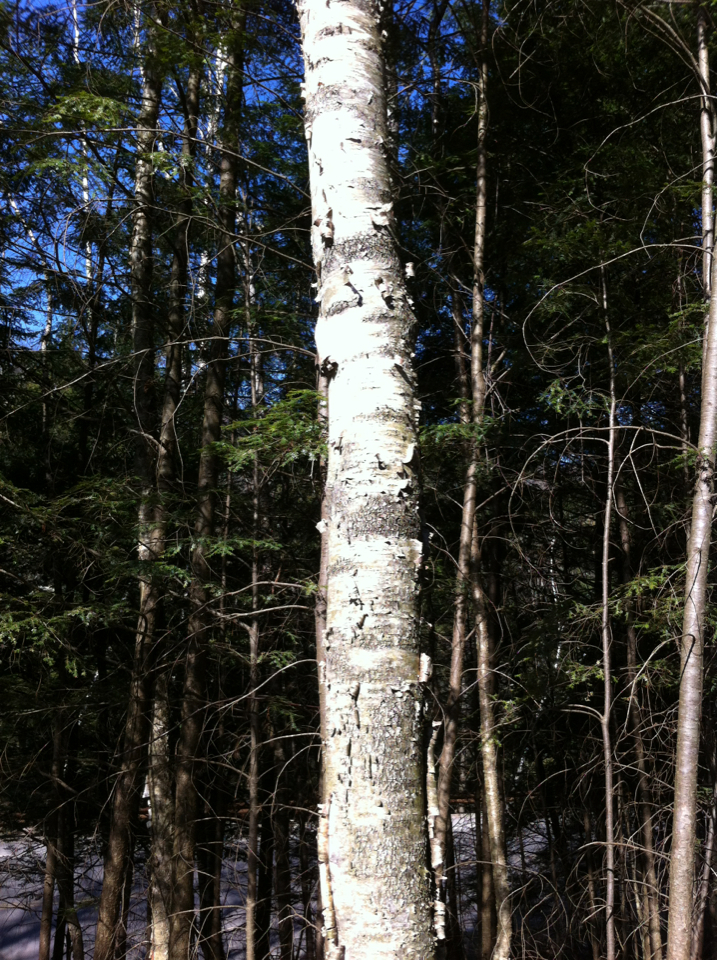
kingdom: Plantae
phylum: Tracheophyta
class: Magnoliopsida
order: Fagales
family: Betulaceae
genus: Betula
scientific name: Betula papyrifera
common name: Paper birch
